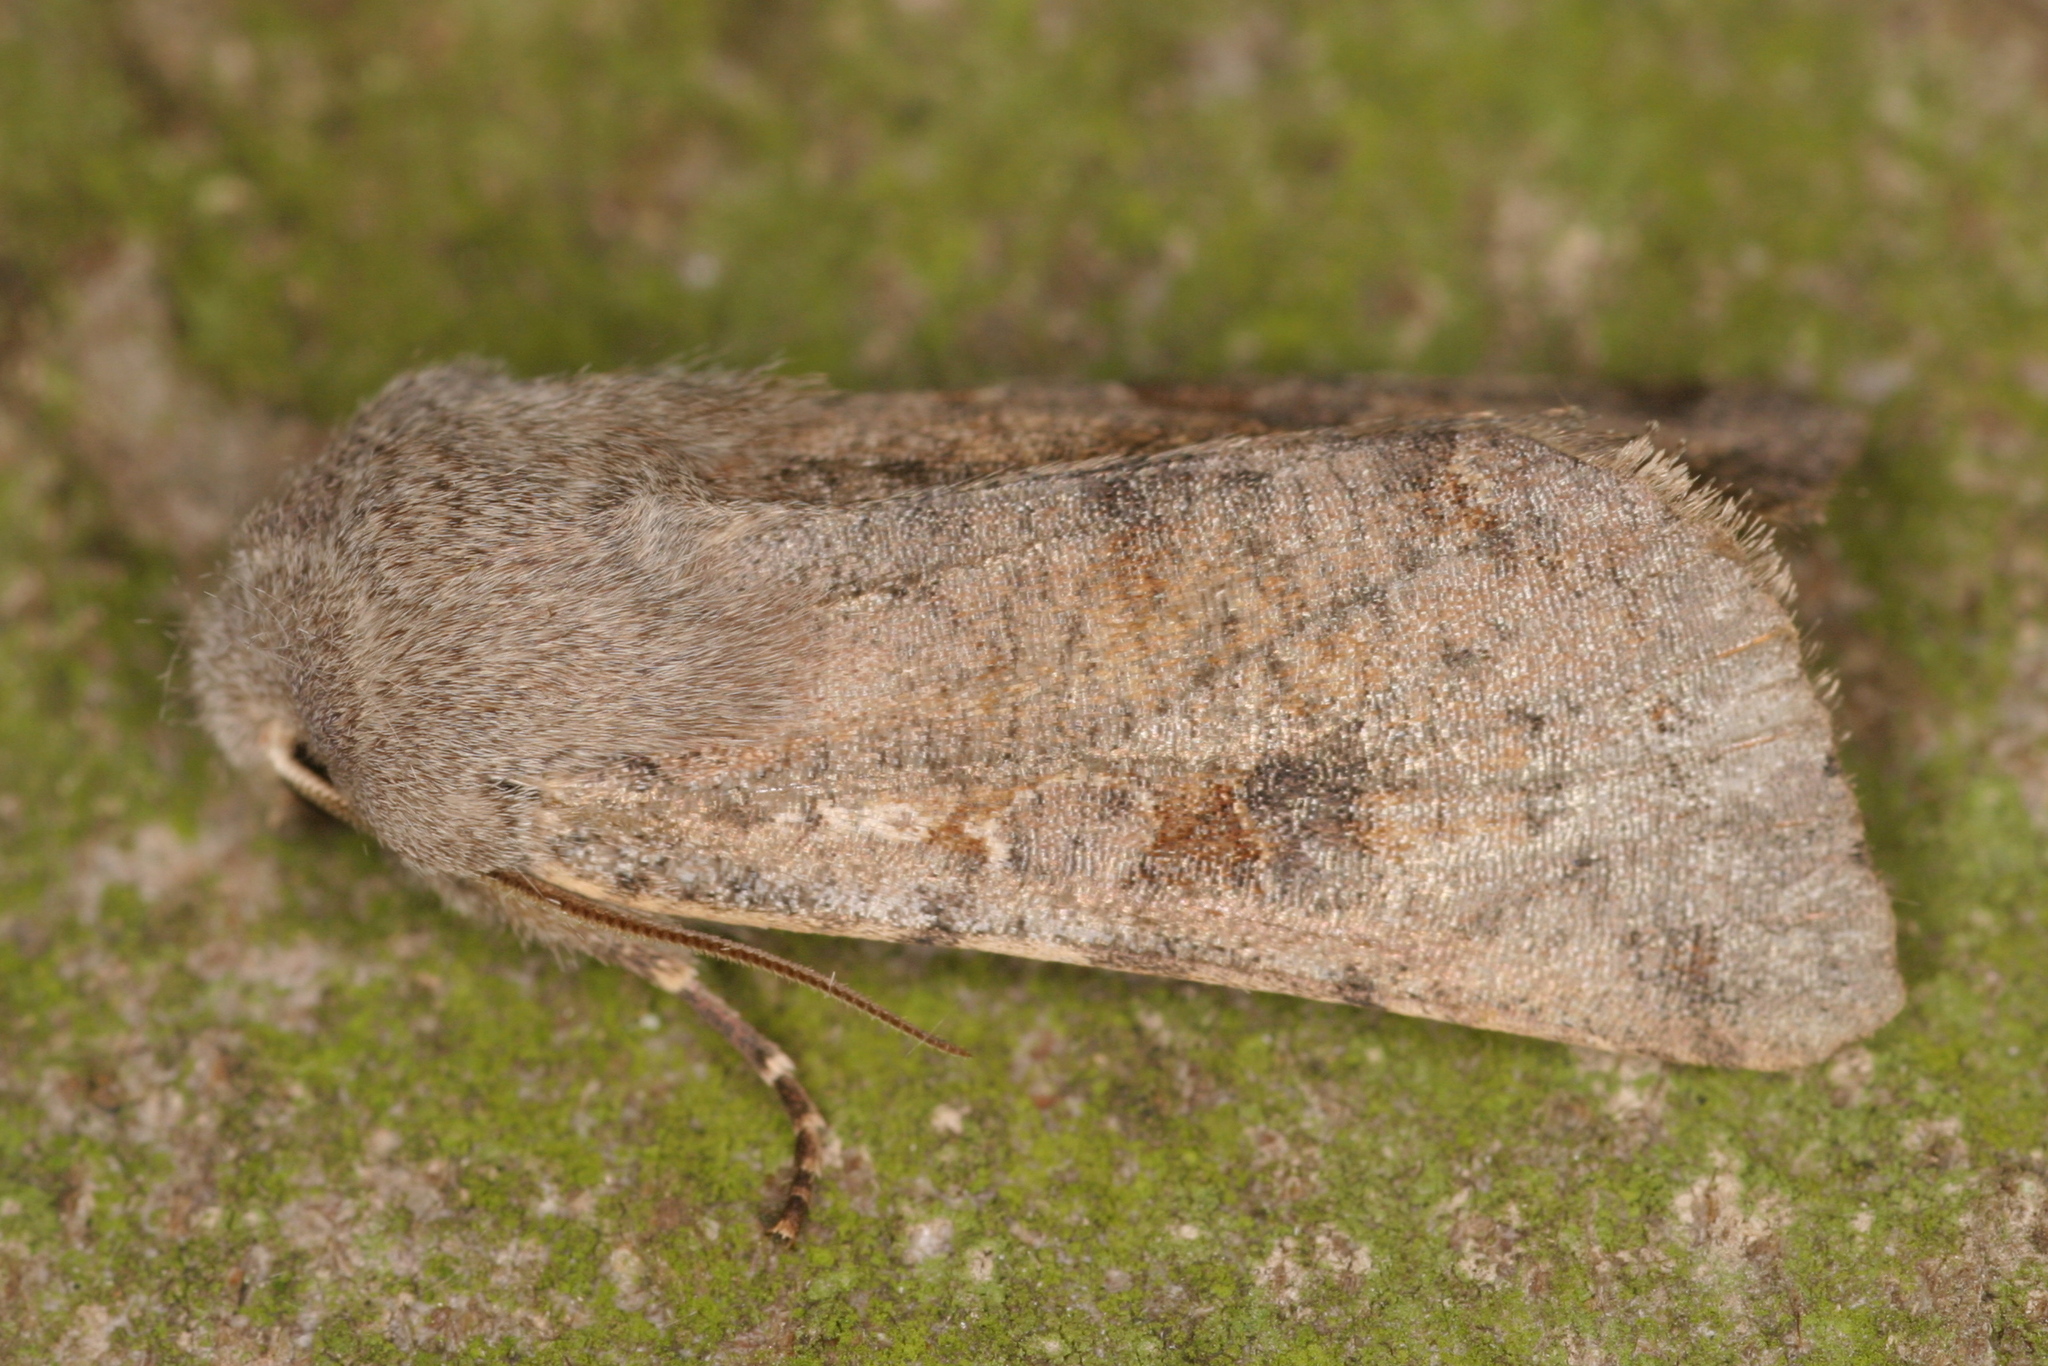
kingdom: Animalia
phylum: Arthropoda
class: Insecta
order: Lepidoptera
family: Noctuidae
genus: Orthosia
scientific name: Orthosia incerta
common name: Clouded drab
